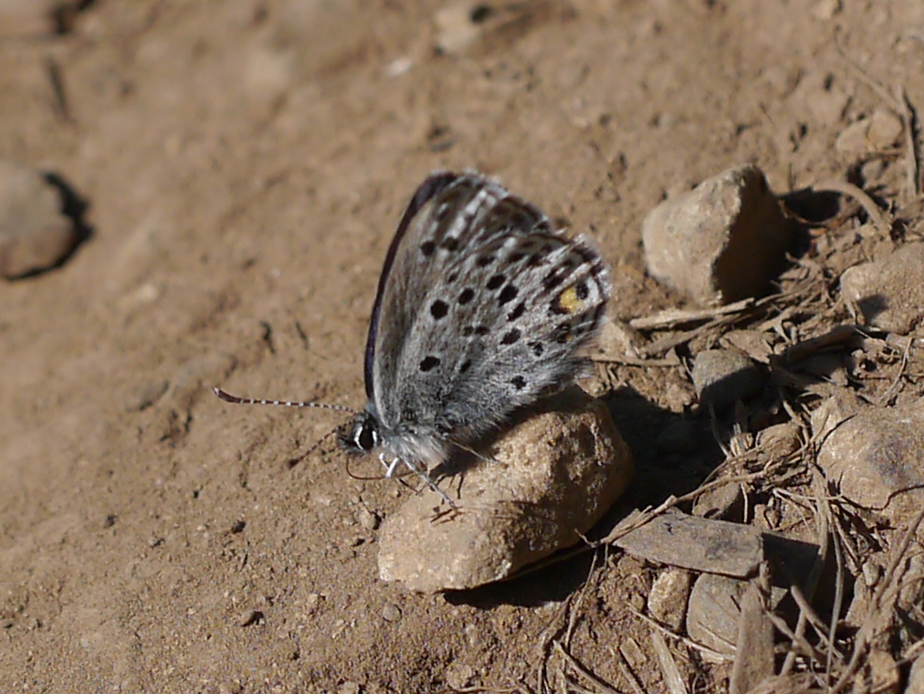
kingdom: Animalia
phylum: Arthropoda
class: Insecta
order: Lepidoptera
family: Lycaenidae
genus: Vacciniina
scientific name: Vacciniina optilete
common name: Cranberry blue
